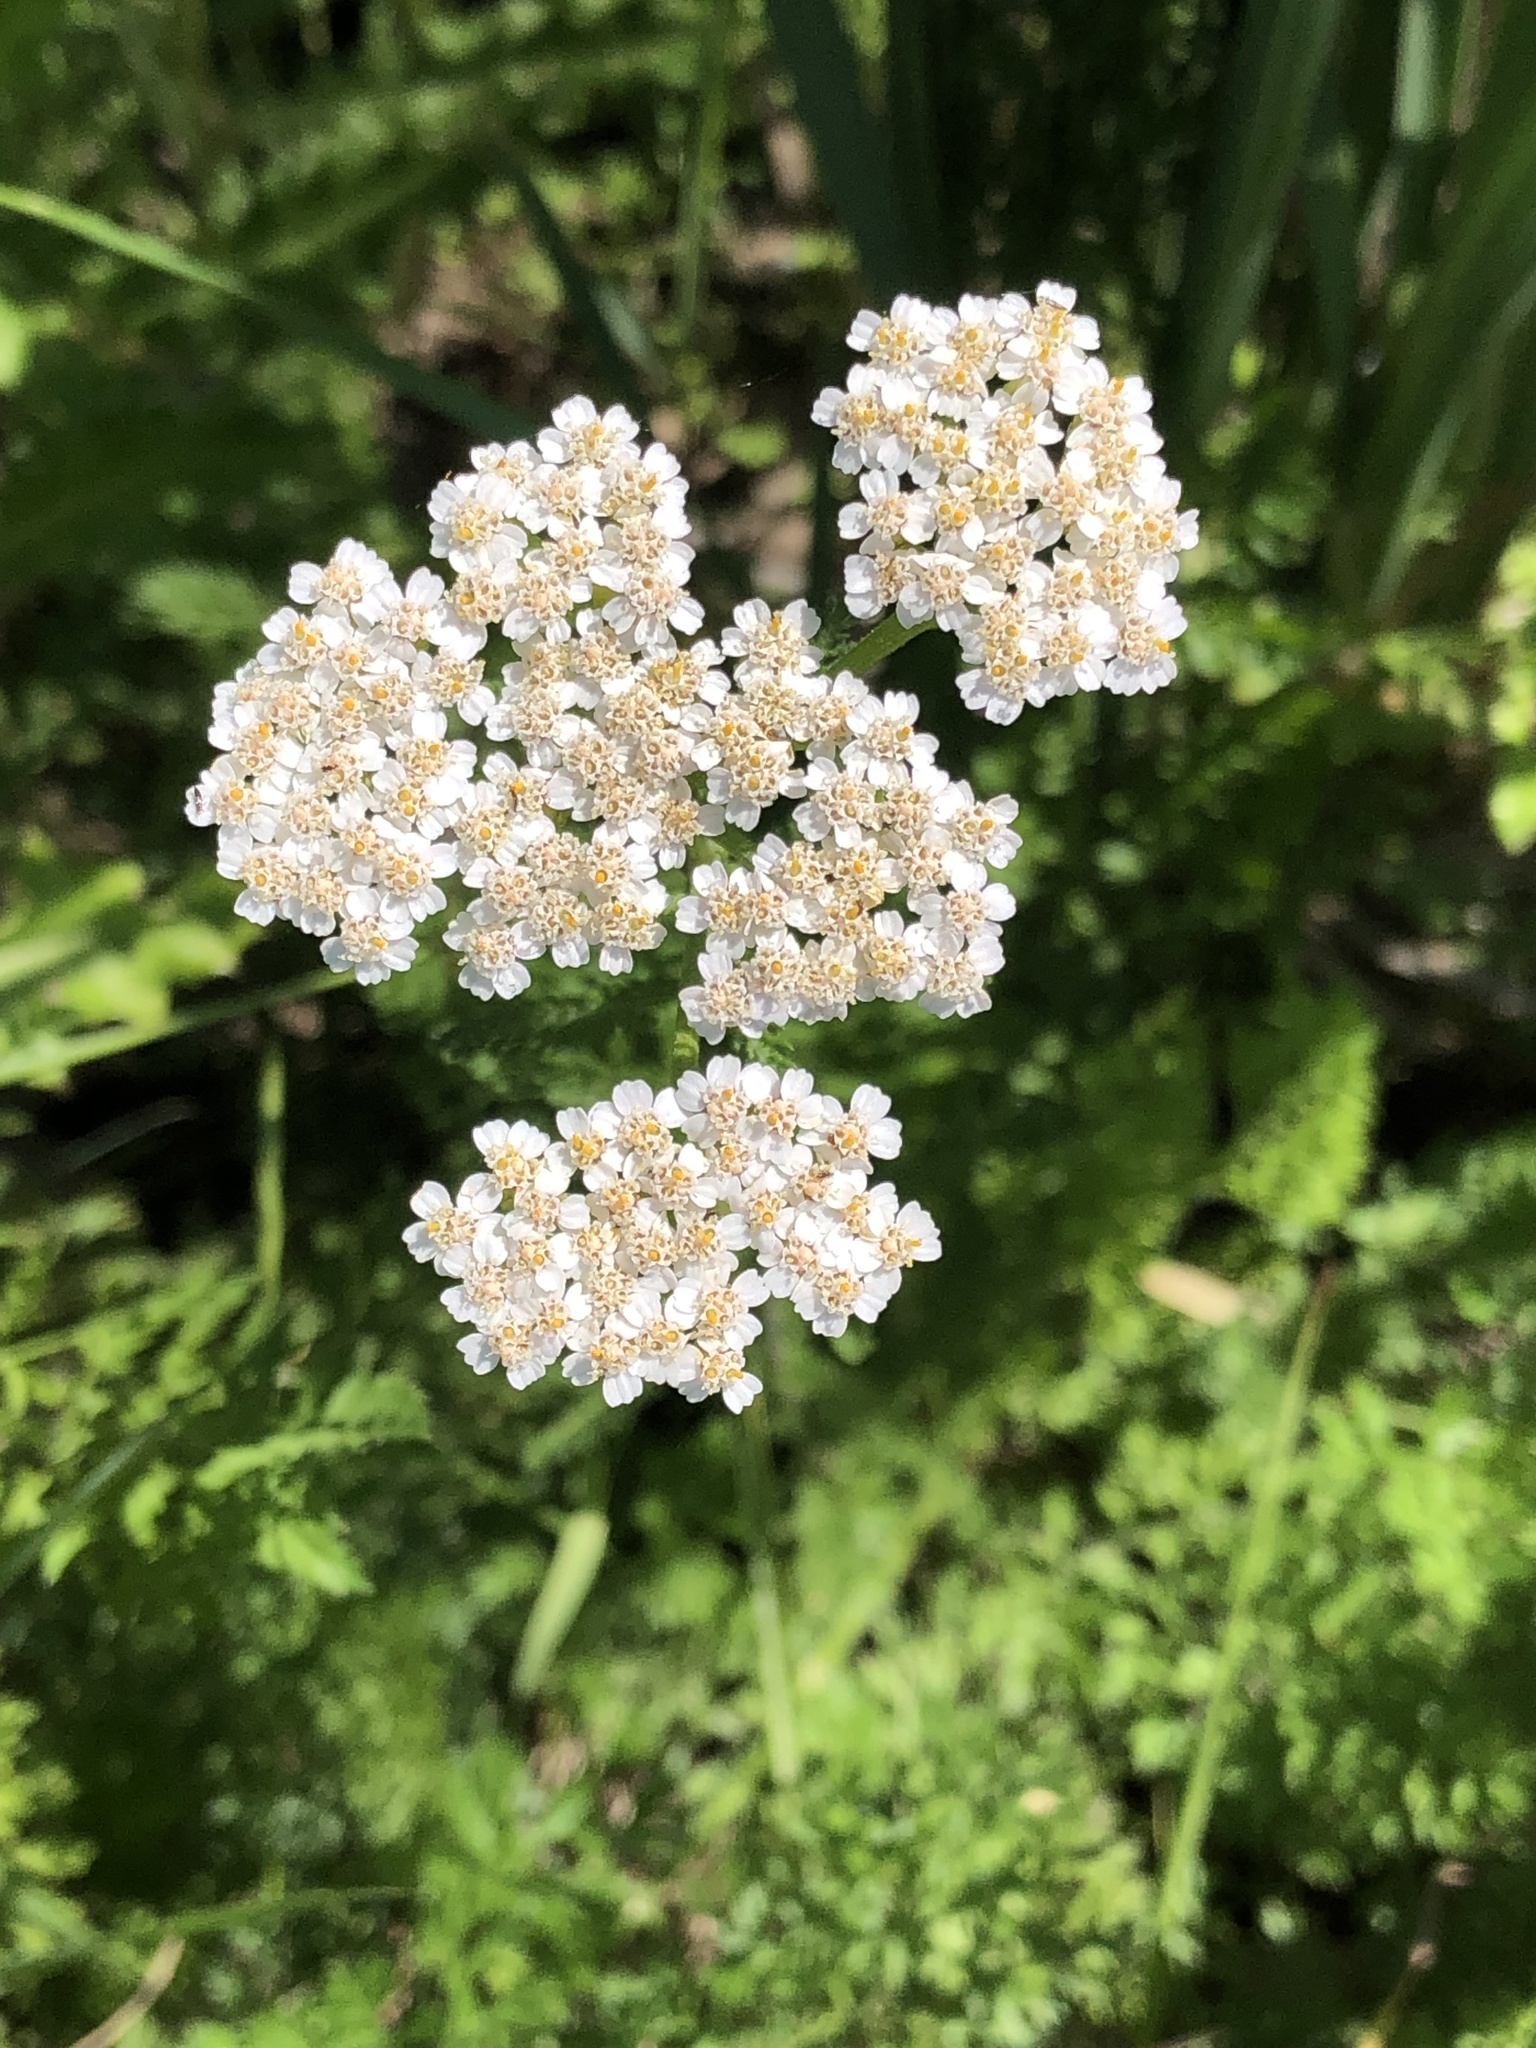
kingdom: Plantae
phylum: Tracheophyta
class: Magnoliopsida
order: Asterales
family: Asteraceae
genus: Achillea
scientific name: Achillea millefolium
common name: Yarrow
